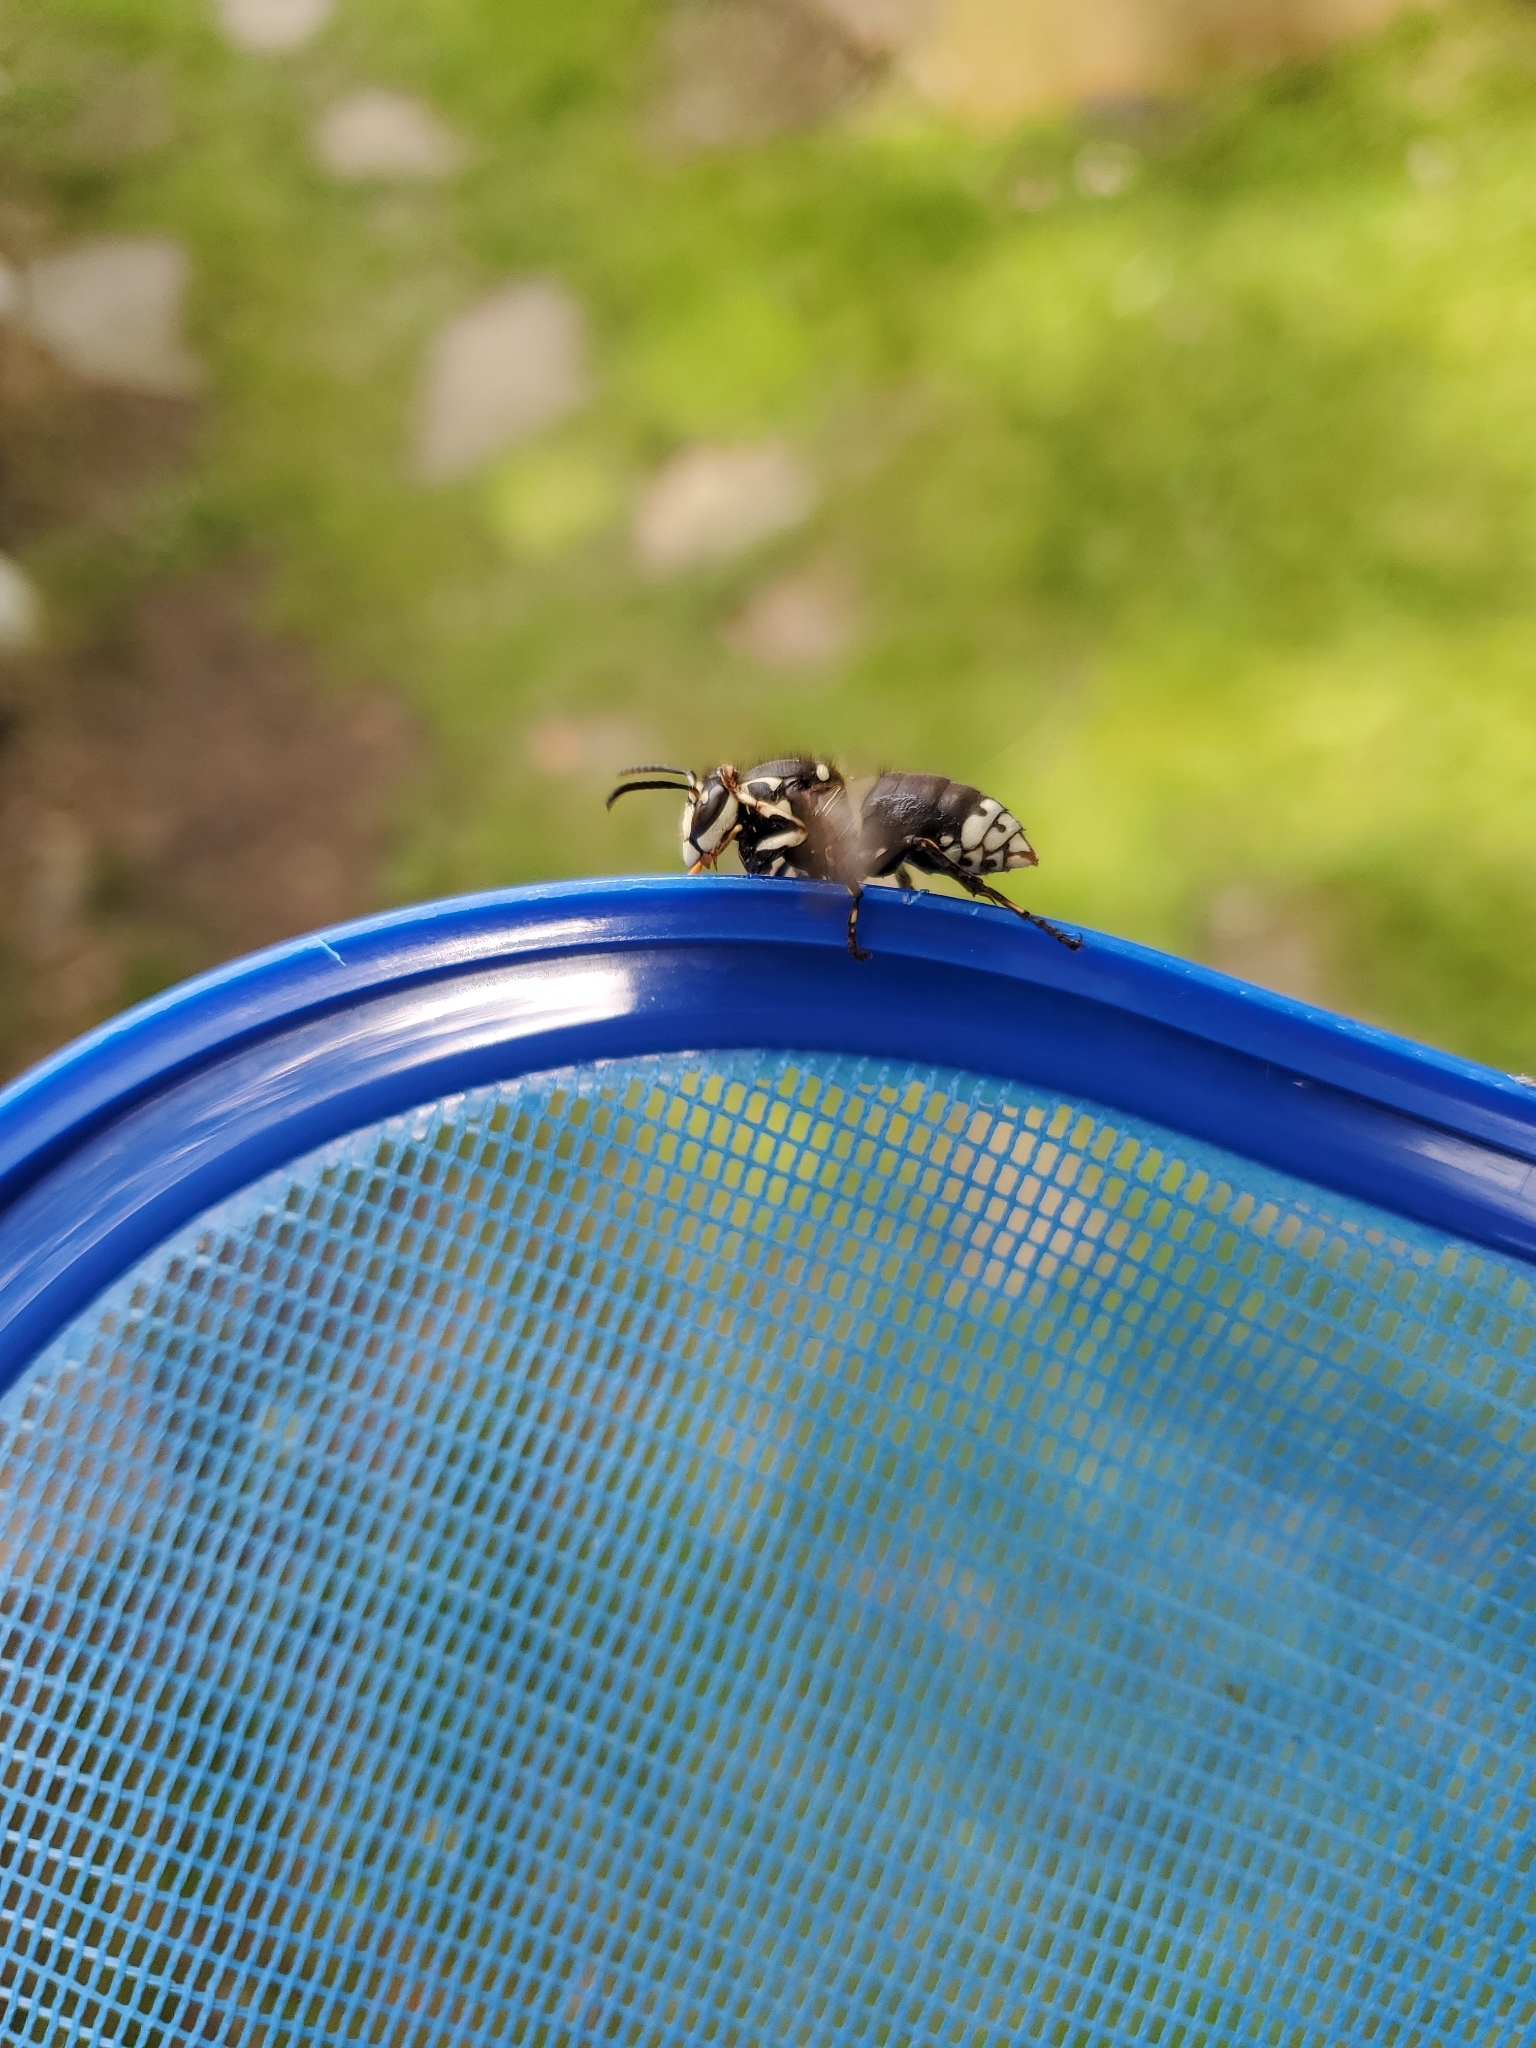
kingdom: Animalia
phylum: Arthropoda
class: Insecta
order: Hymenoptera
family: Vespidae
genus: Dolichovespula
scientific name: Dolichovespula maculata
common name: Bald-faced hornet
